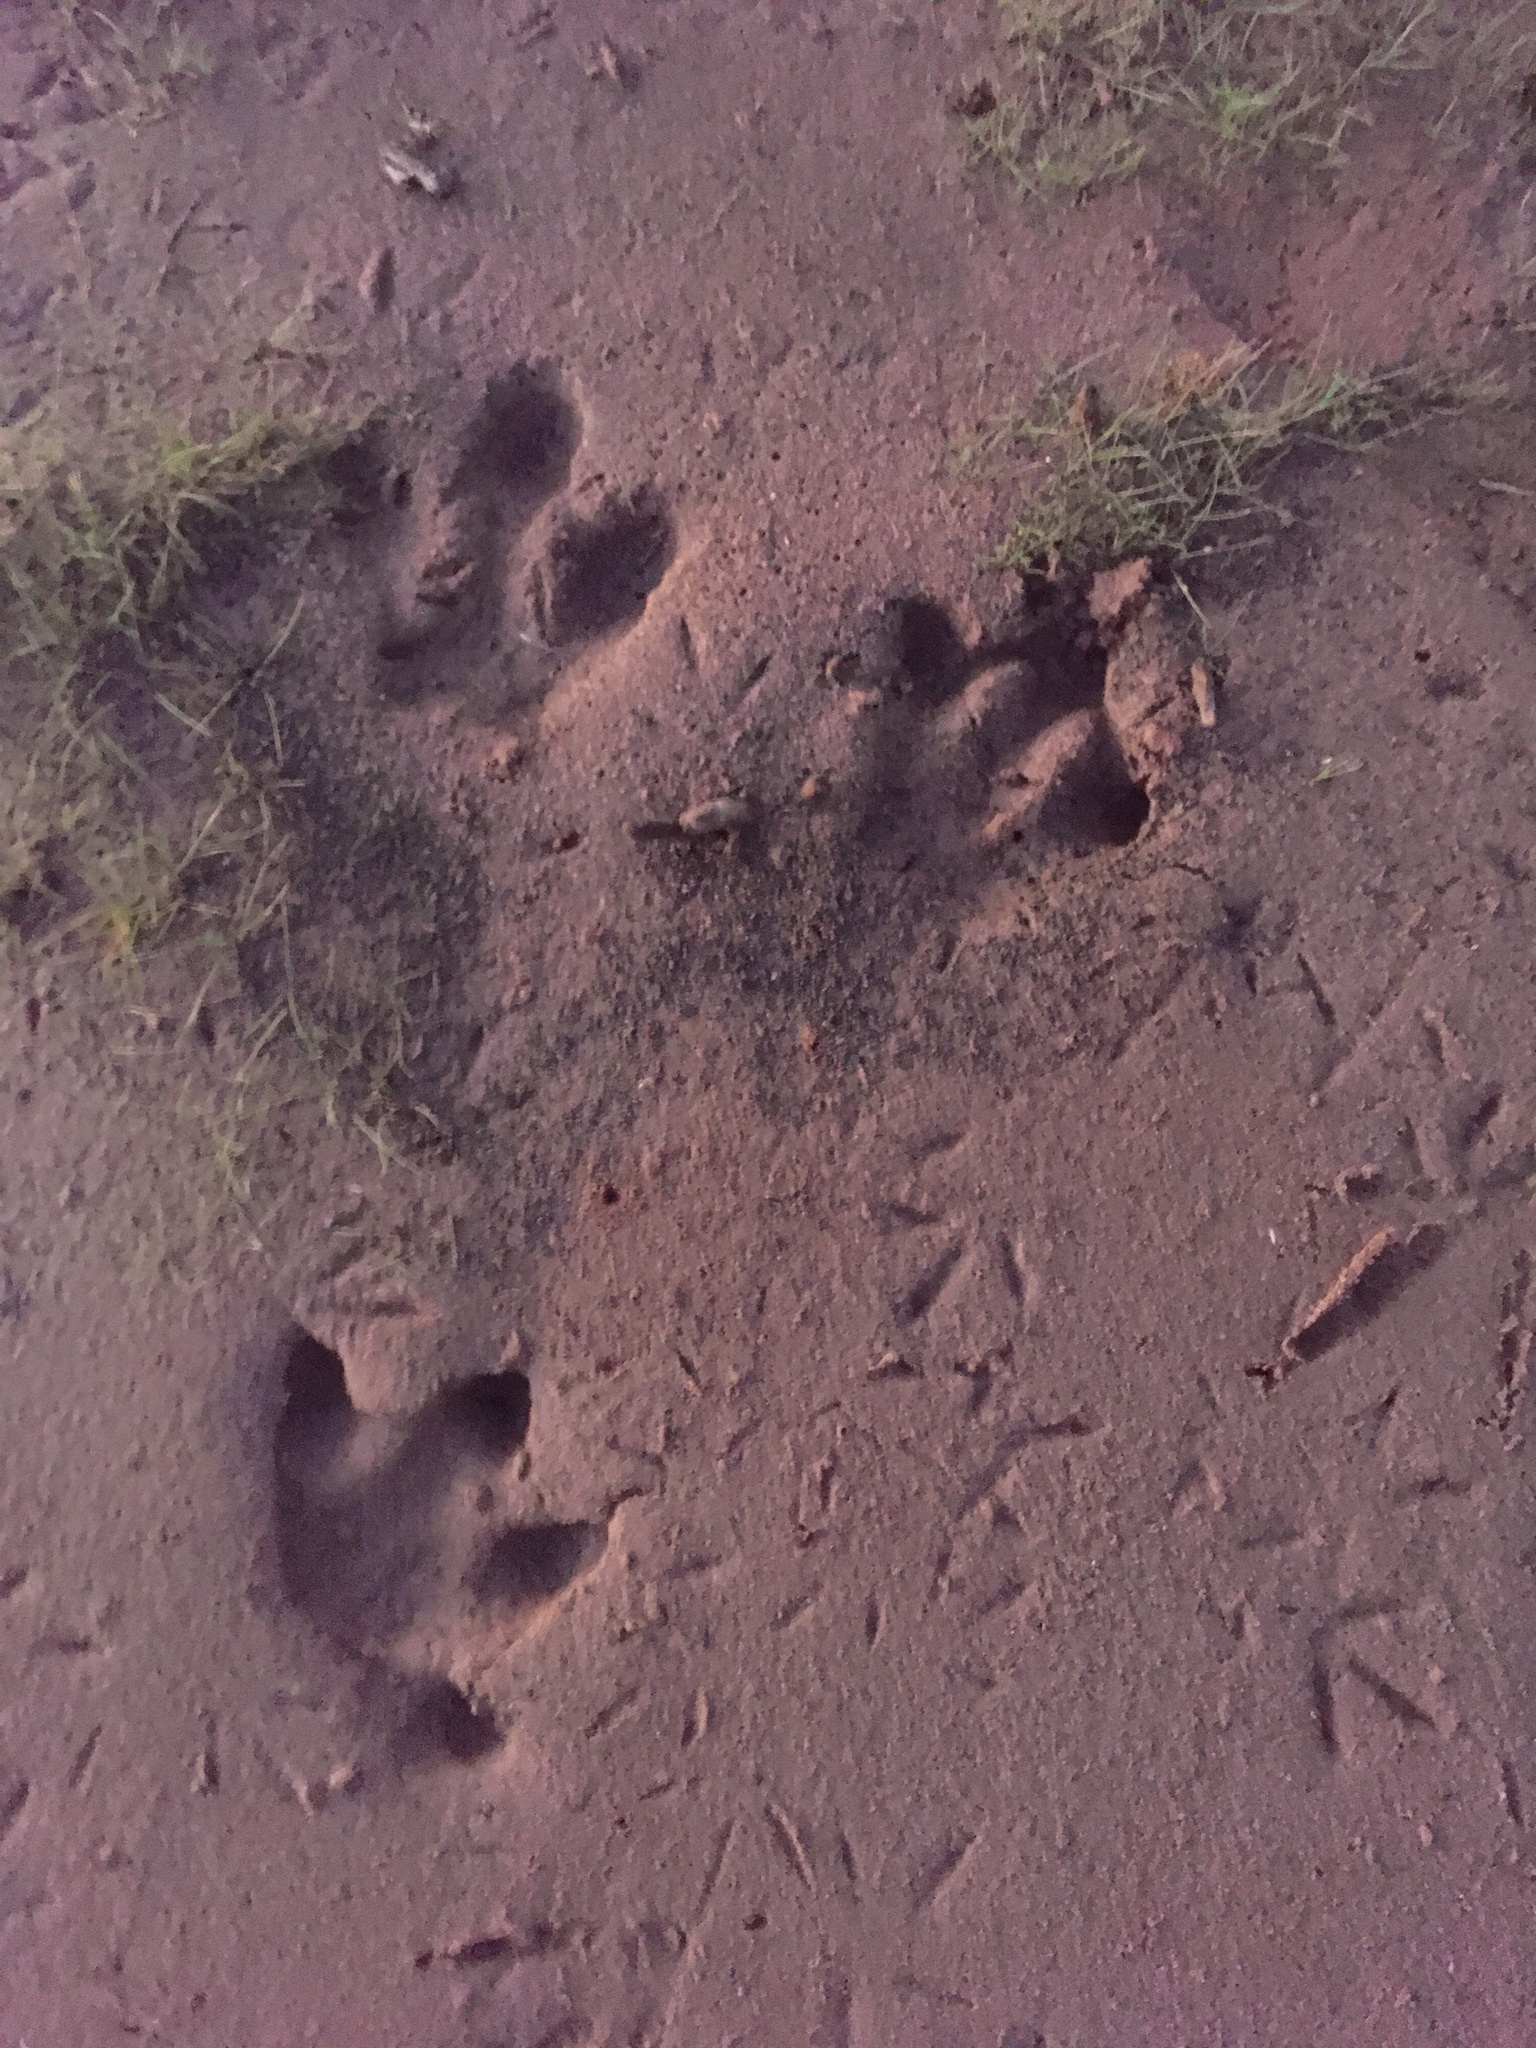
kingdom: Animalia
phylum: Chordata
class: Mammalia
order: Rodentia
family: Caviidae
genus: Hydrochoerus
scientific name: Hydrochoerus hydrochaeris
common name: Capybara
